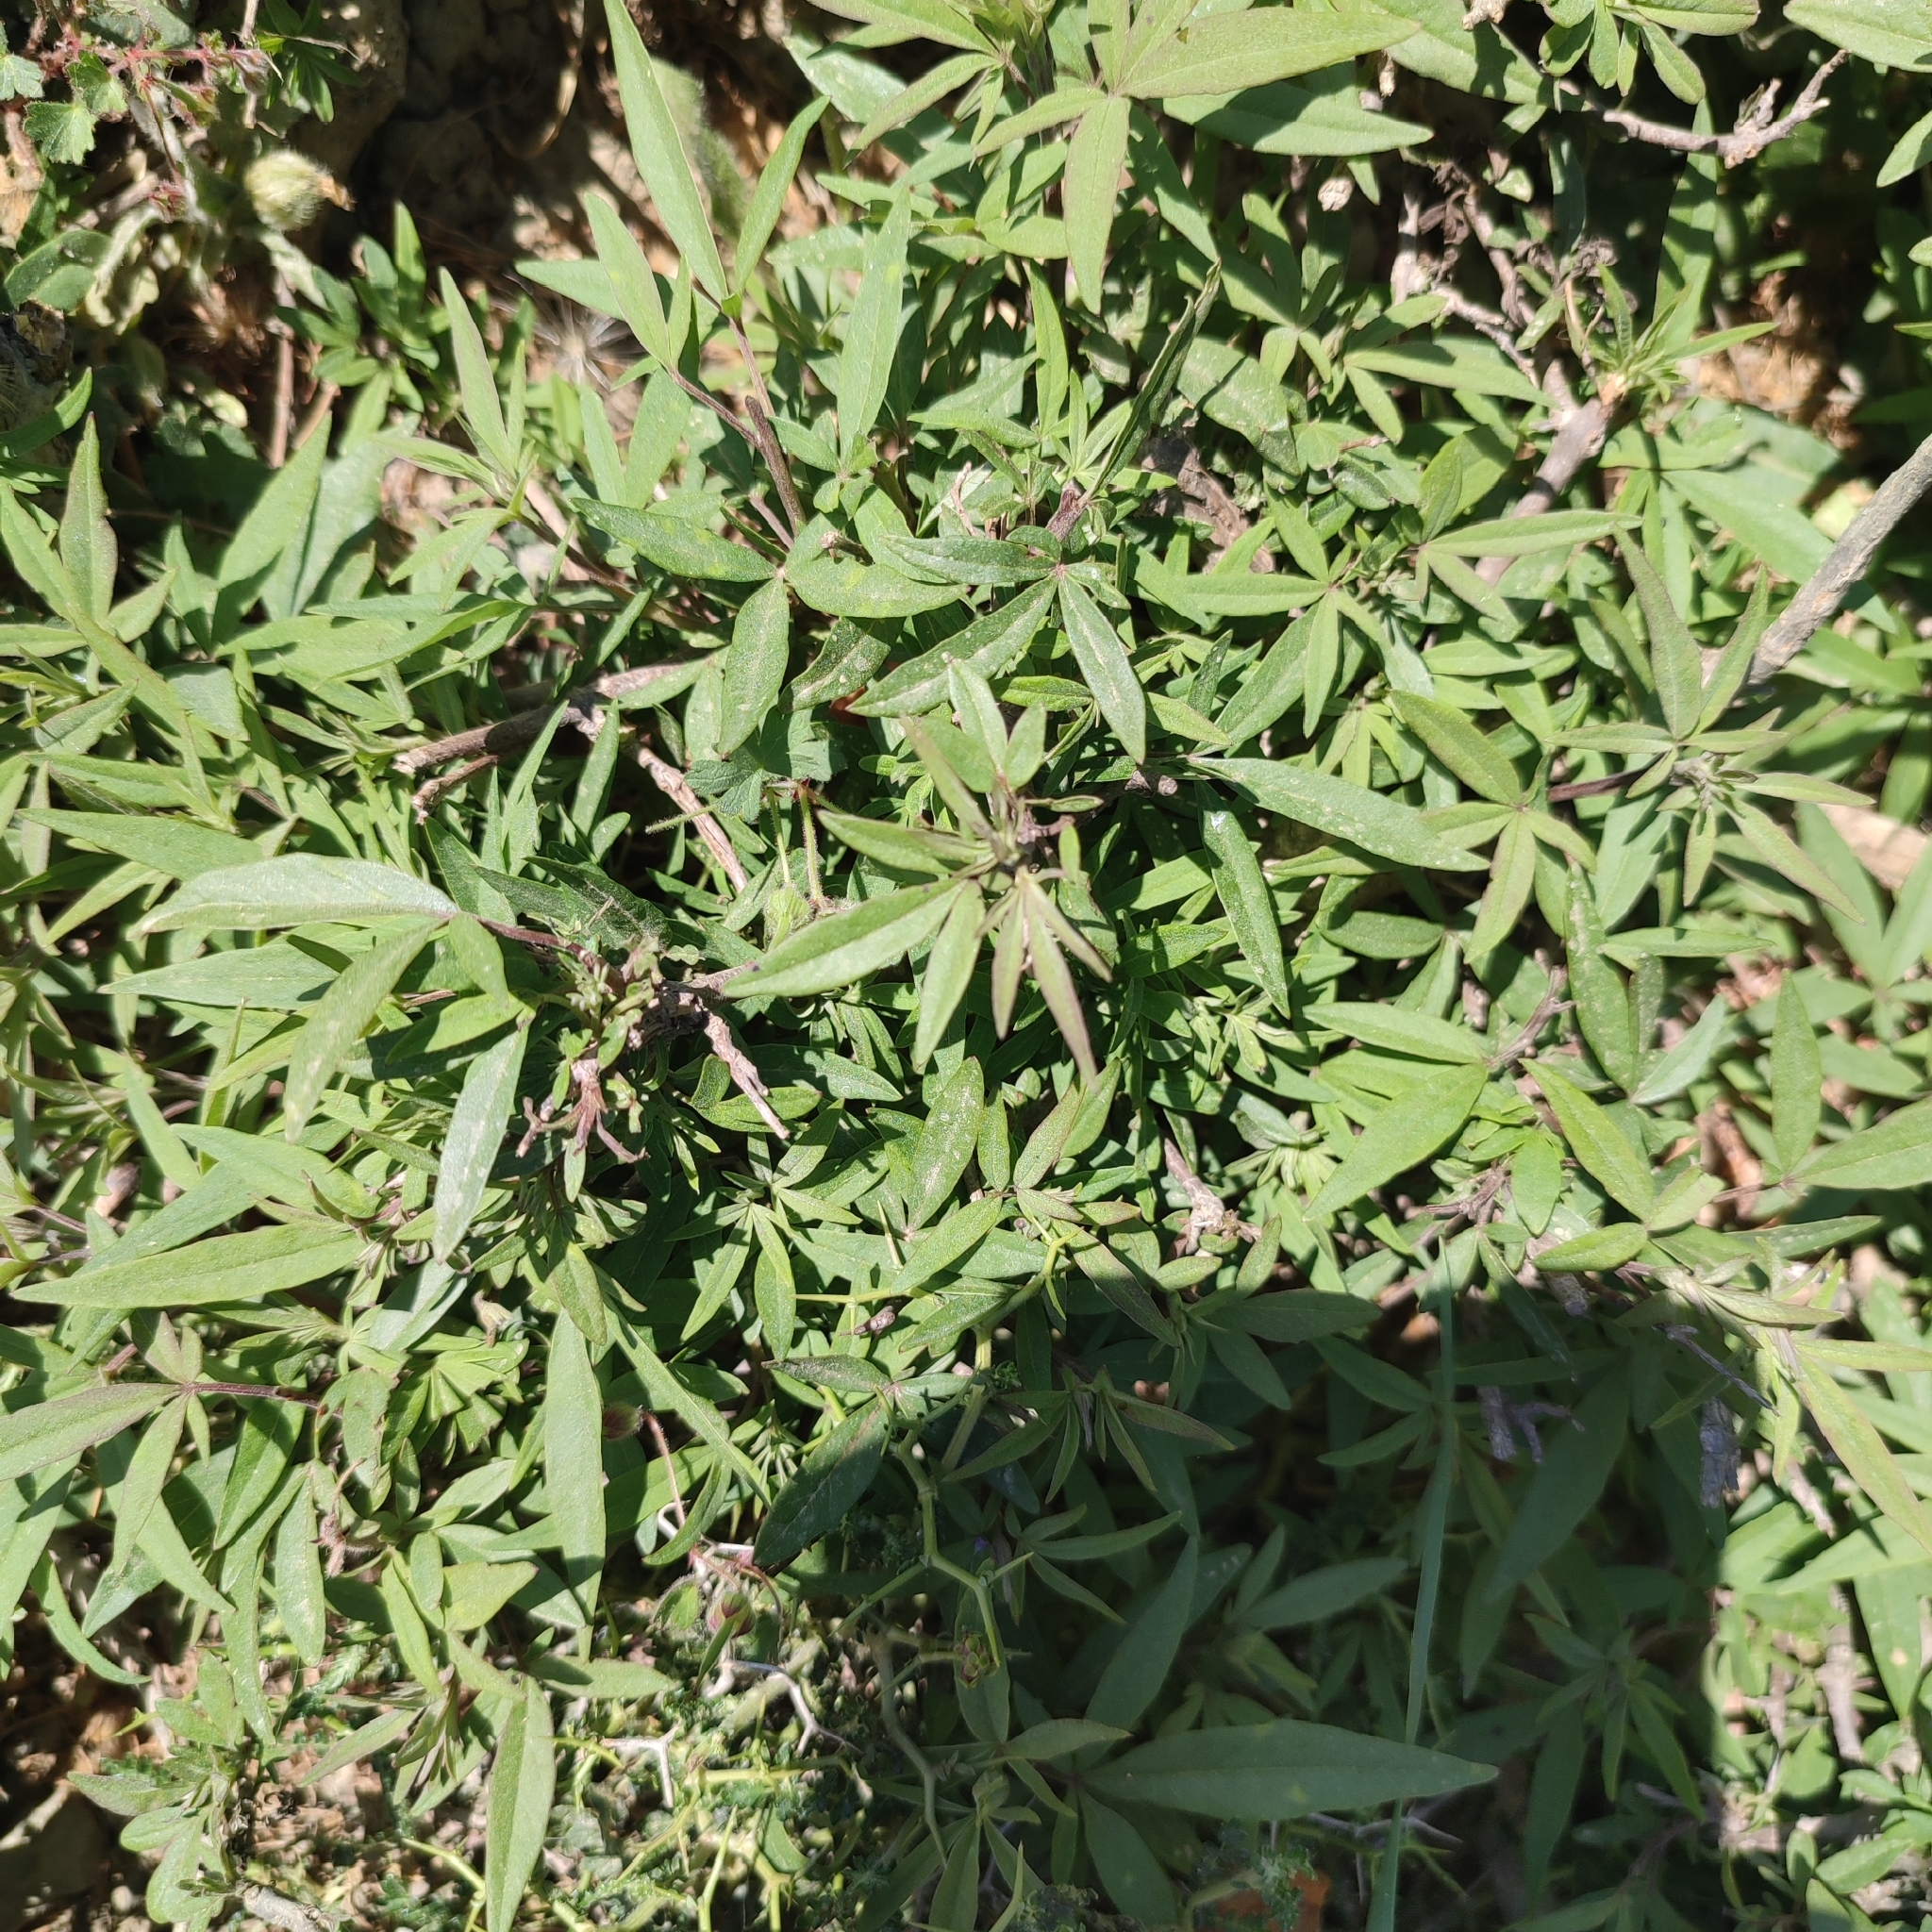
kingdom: Plantae
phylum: Tracheophyta
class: Magnoliopsida
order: Lamiales
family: Lamiaceae
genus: Vitex
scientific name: Vitex agnus-castus
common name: Chasteberry
